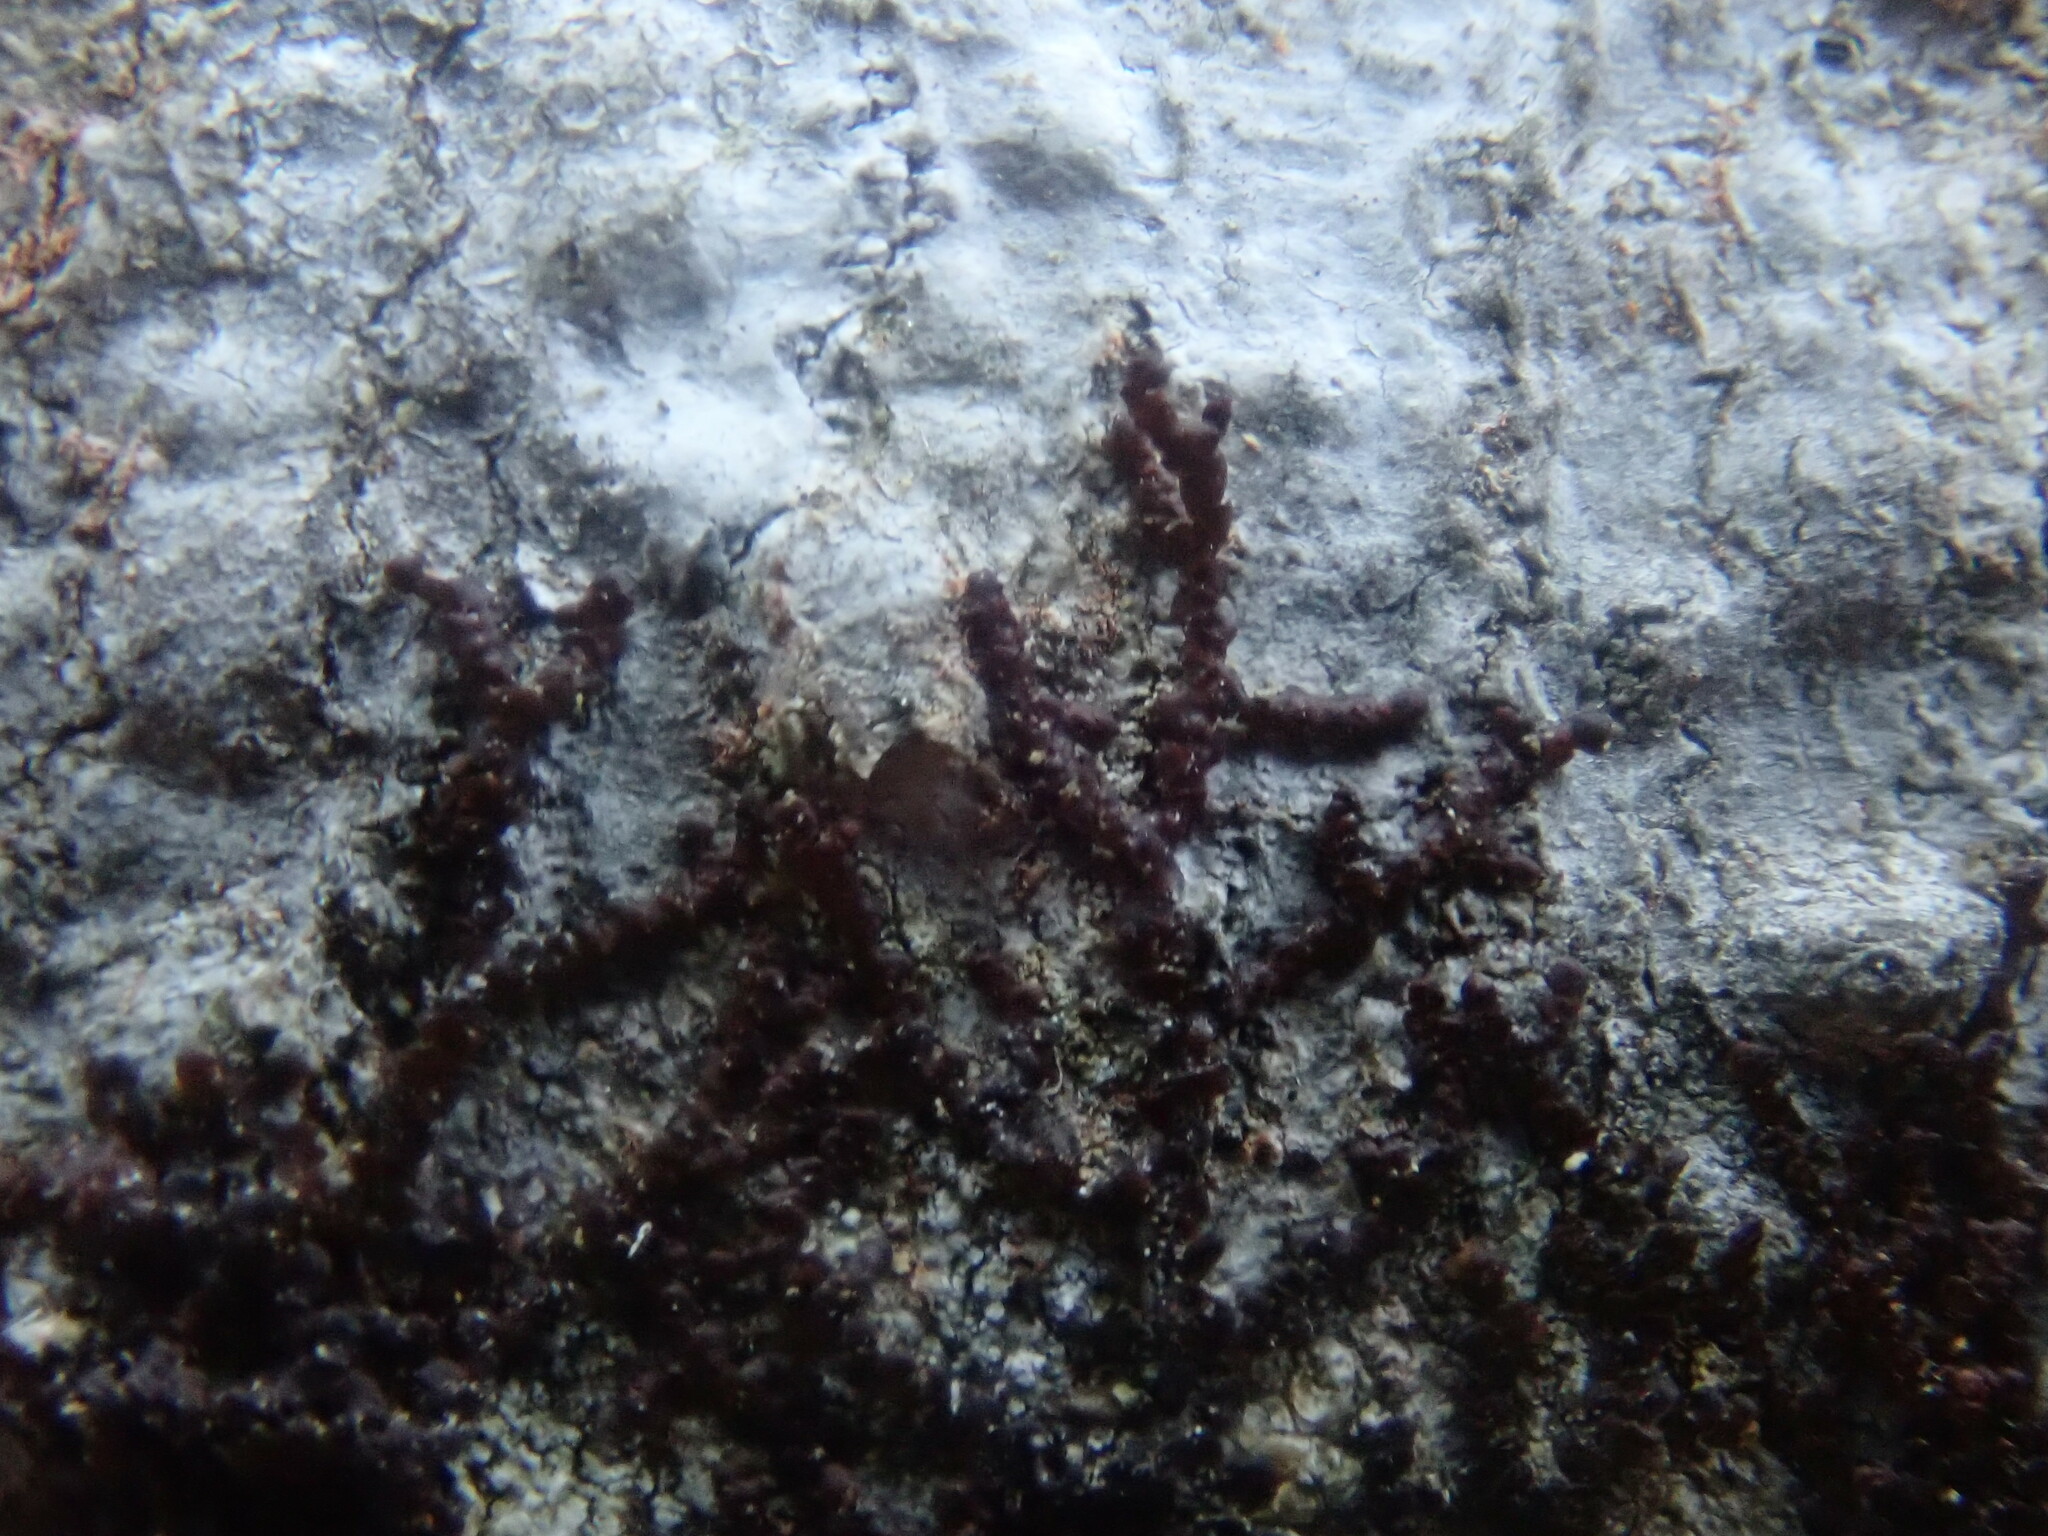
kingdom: Plantae
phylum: Marchantiophyta
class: Jungermanniopsida
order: Porellales
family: Frullaniaceae
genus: Frullania
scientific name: Frullania
